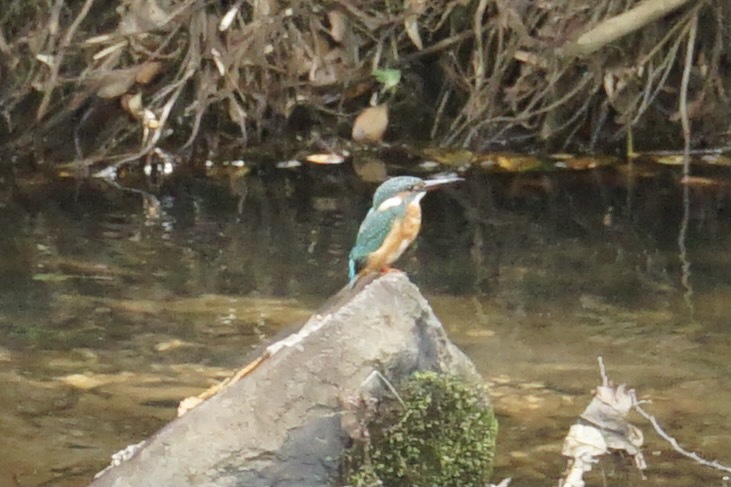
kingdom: Animalia
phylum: Chordata
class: Aves
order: Coraciiformes
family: Alcedinidae
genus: Alcedo
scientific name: Alcedo atthis
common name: Common kingfisher
